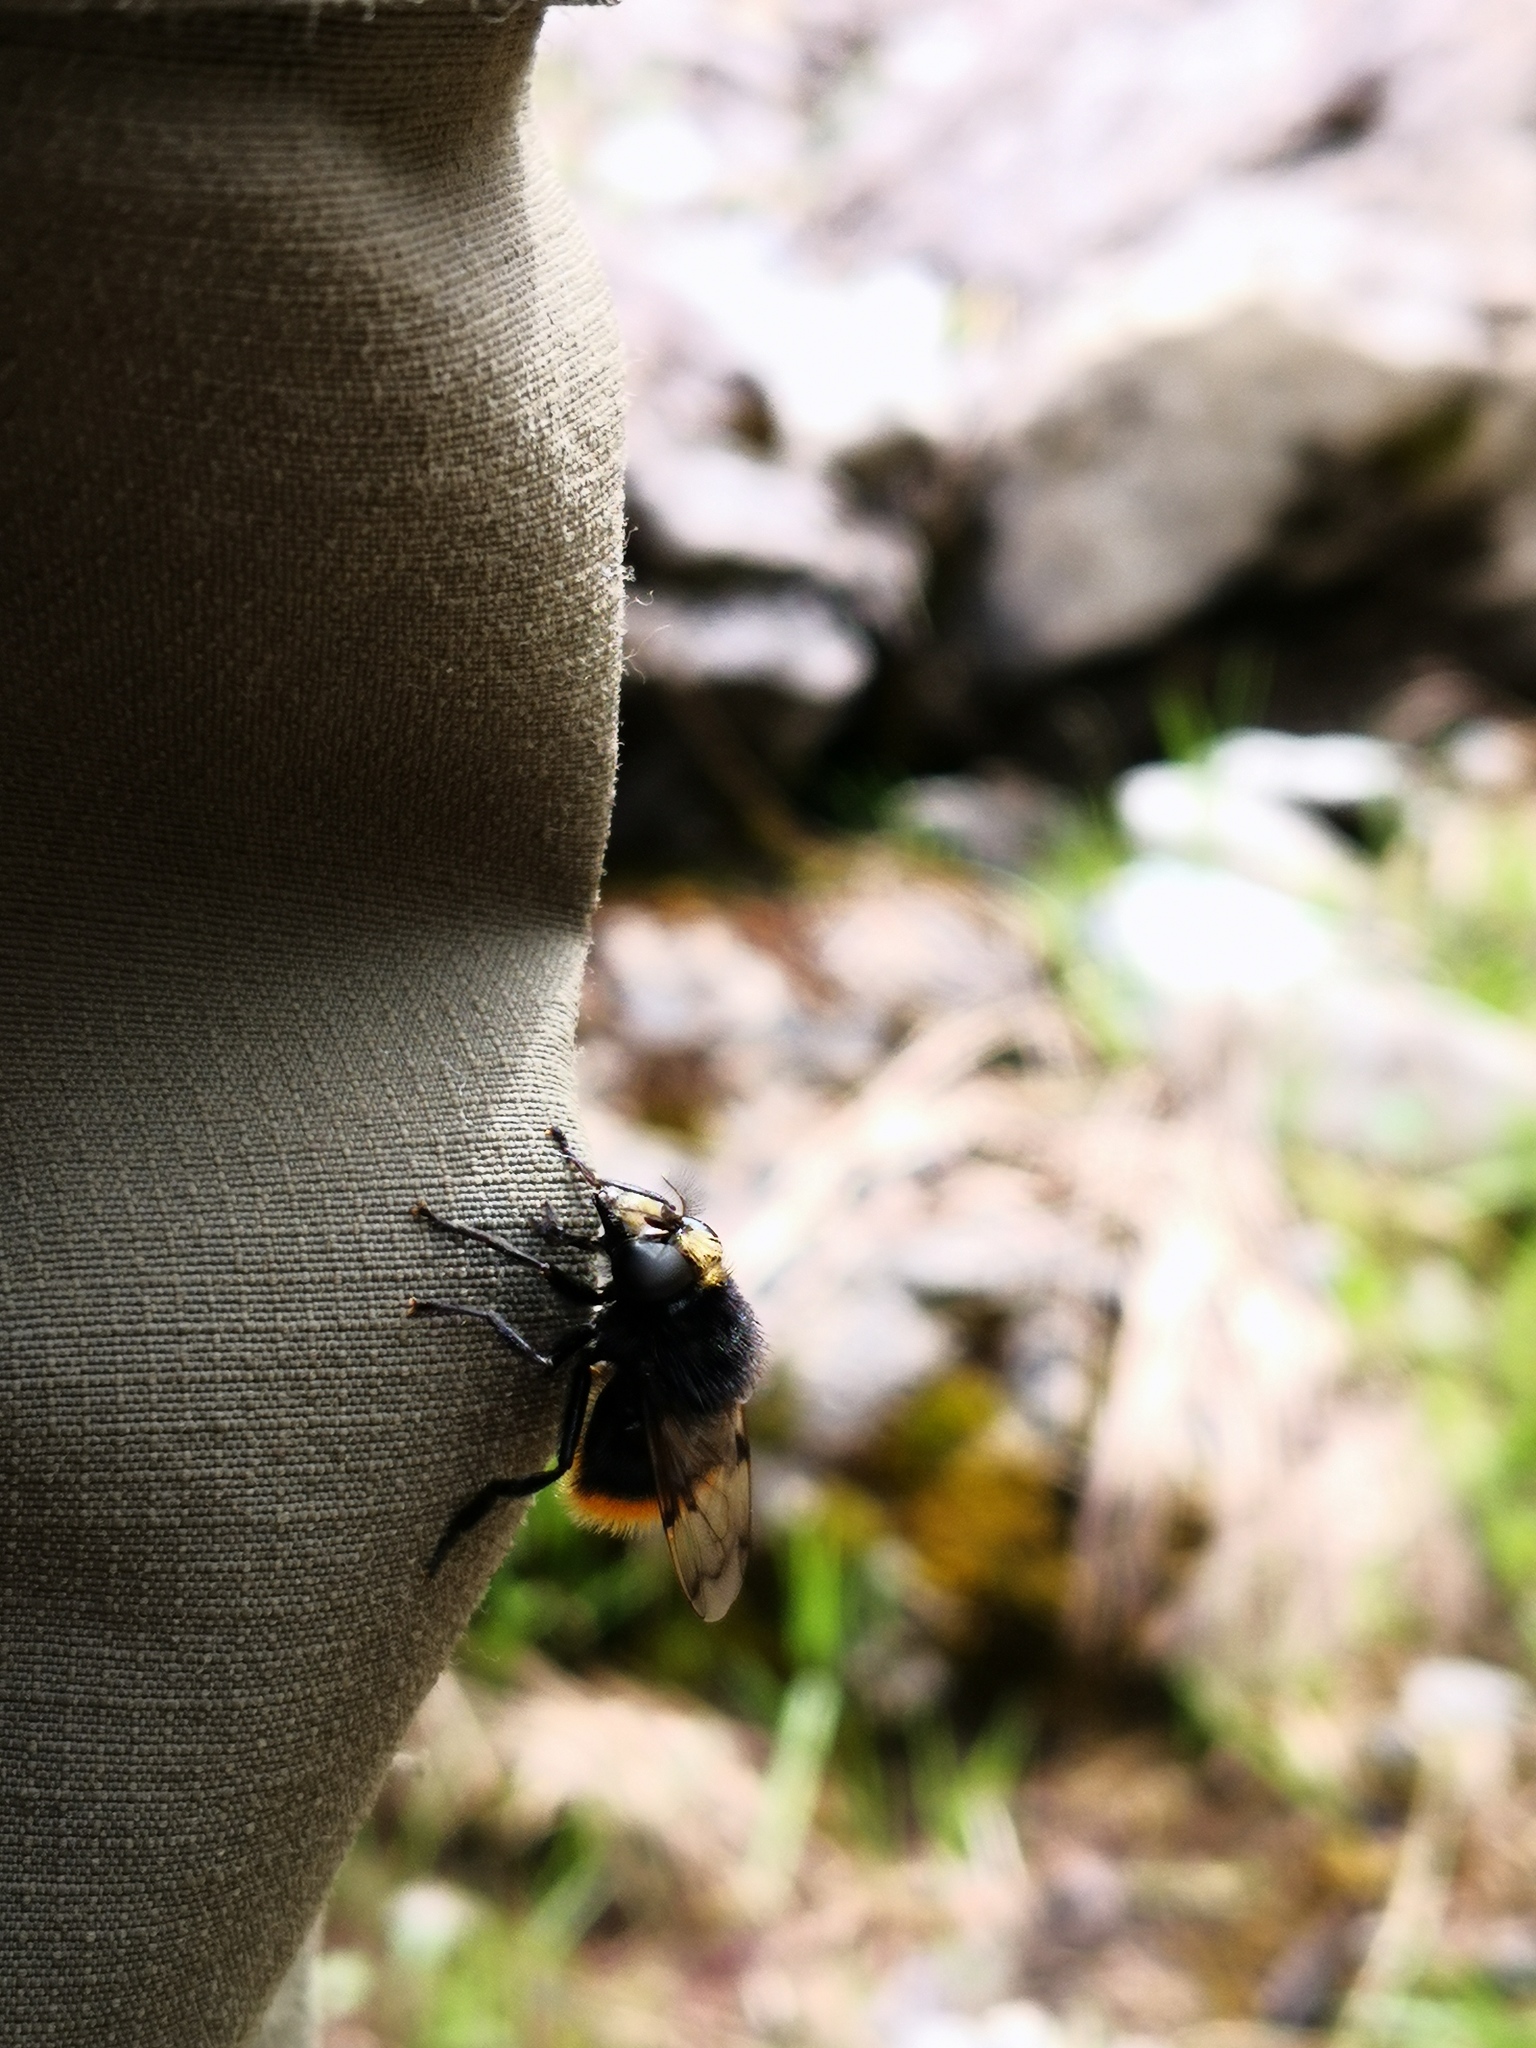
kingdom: Animalia
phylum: Arthropoda
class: Insecta
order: Diptera
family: Syrphidae
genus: Volucella
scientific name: Volucella bombylans
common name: Bumble bee hover fly
